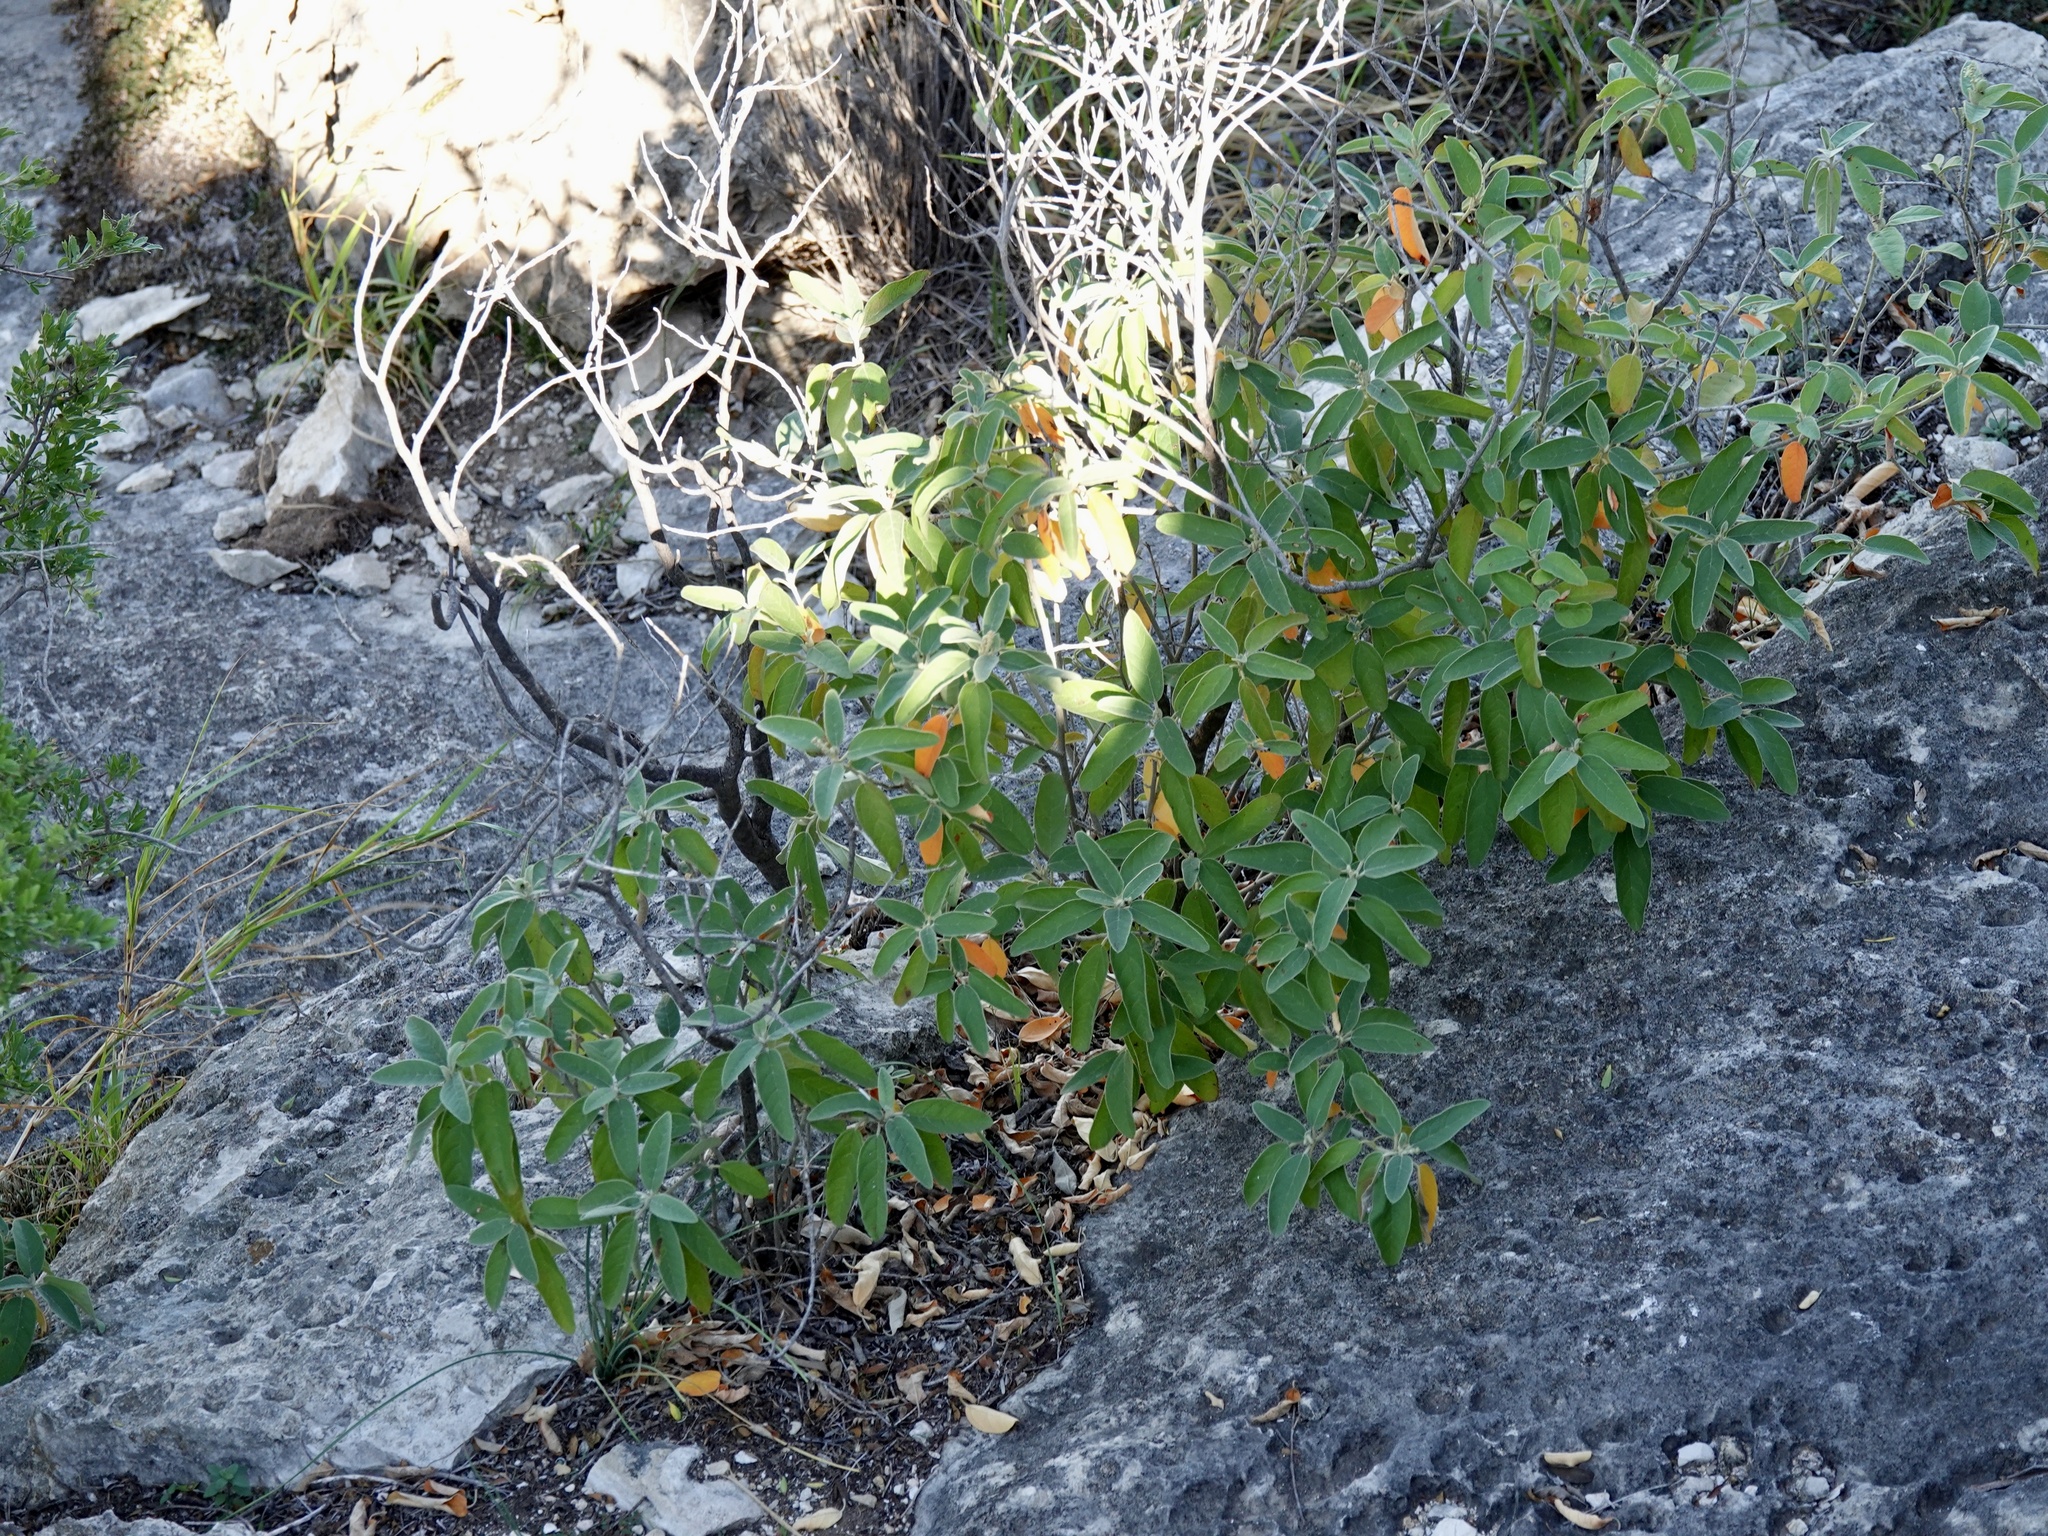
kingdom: Plantae
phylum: Tracheophyta
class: Magnoliopsida
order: Malpighiales
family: Euphorbiaceae
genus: Croton
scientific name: Croton incanus
